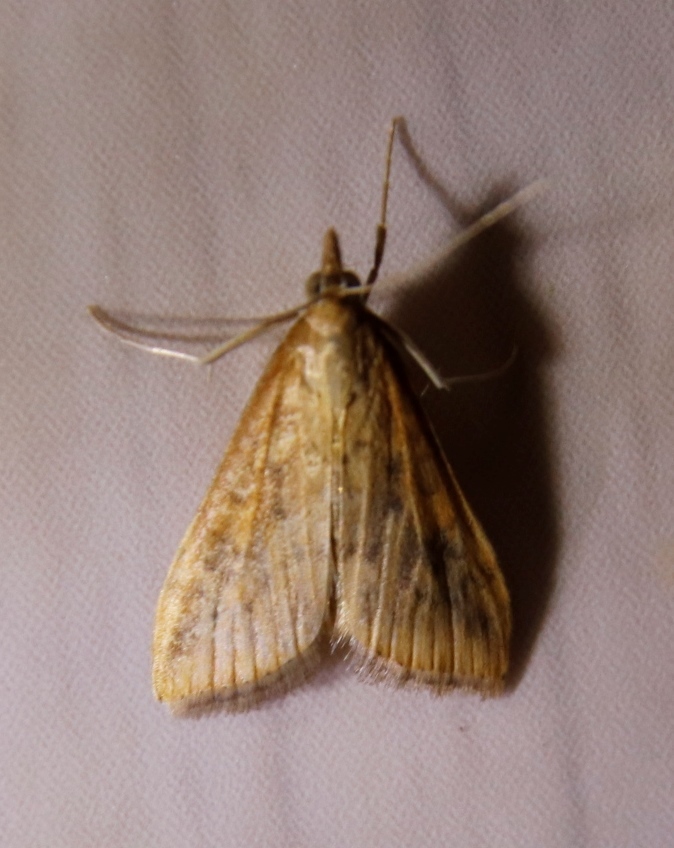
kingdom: Animalia
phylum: Arthropoda
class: Insecta
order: Lepidoptera
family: Crambidae
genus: Udea
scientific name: Udea ferrugalis
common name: Rusty dot
